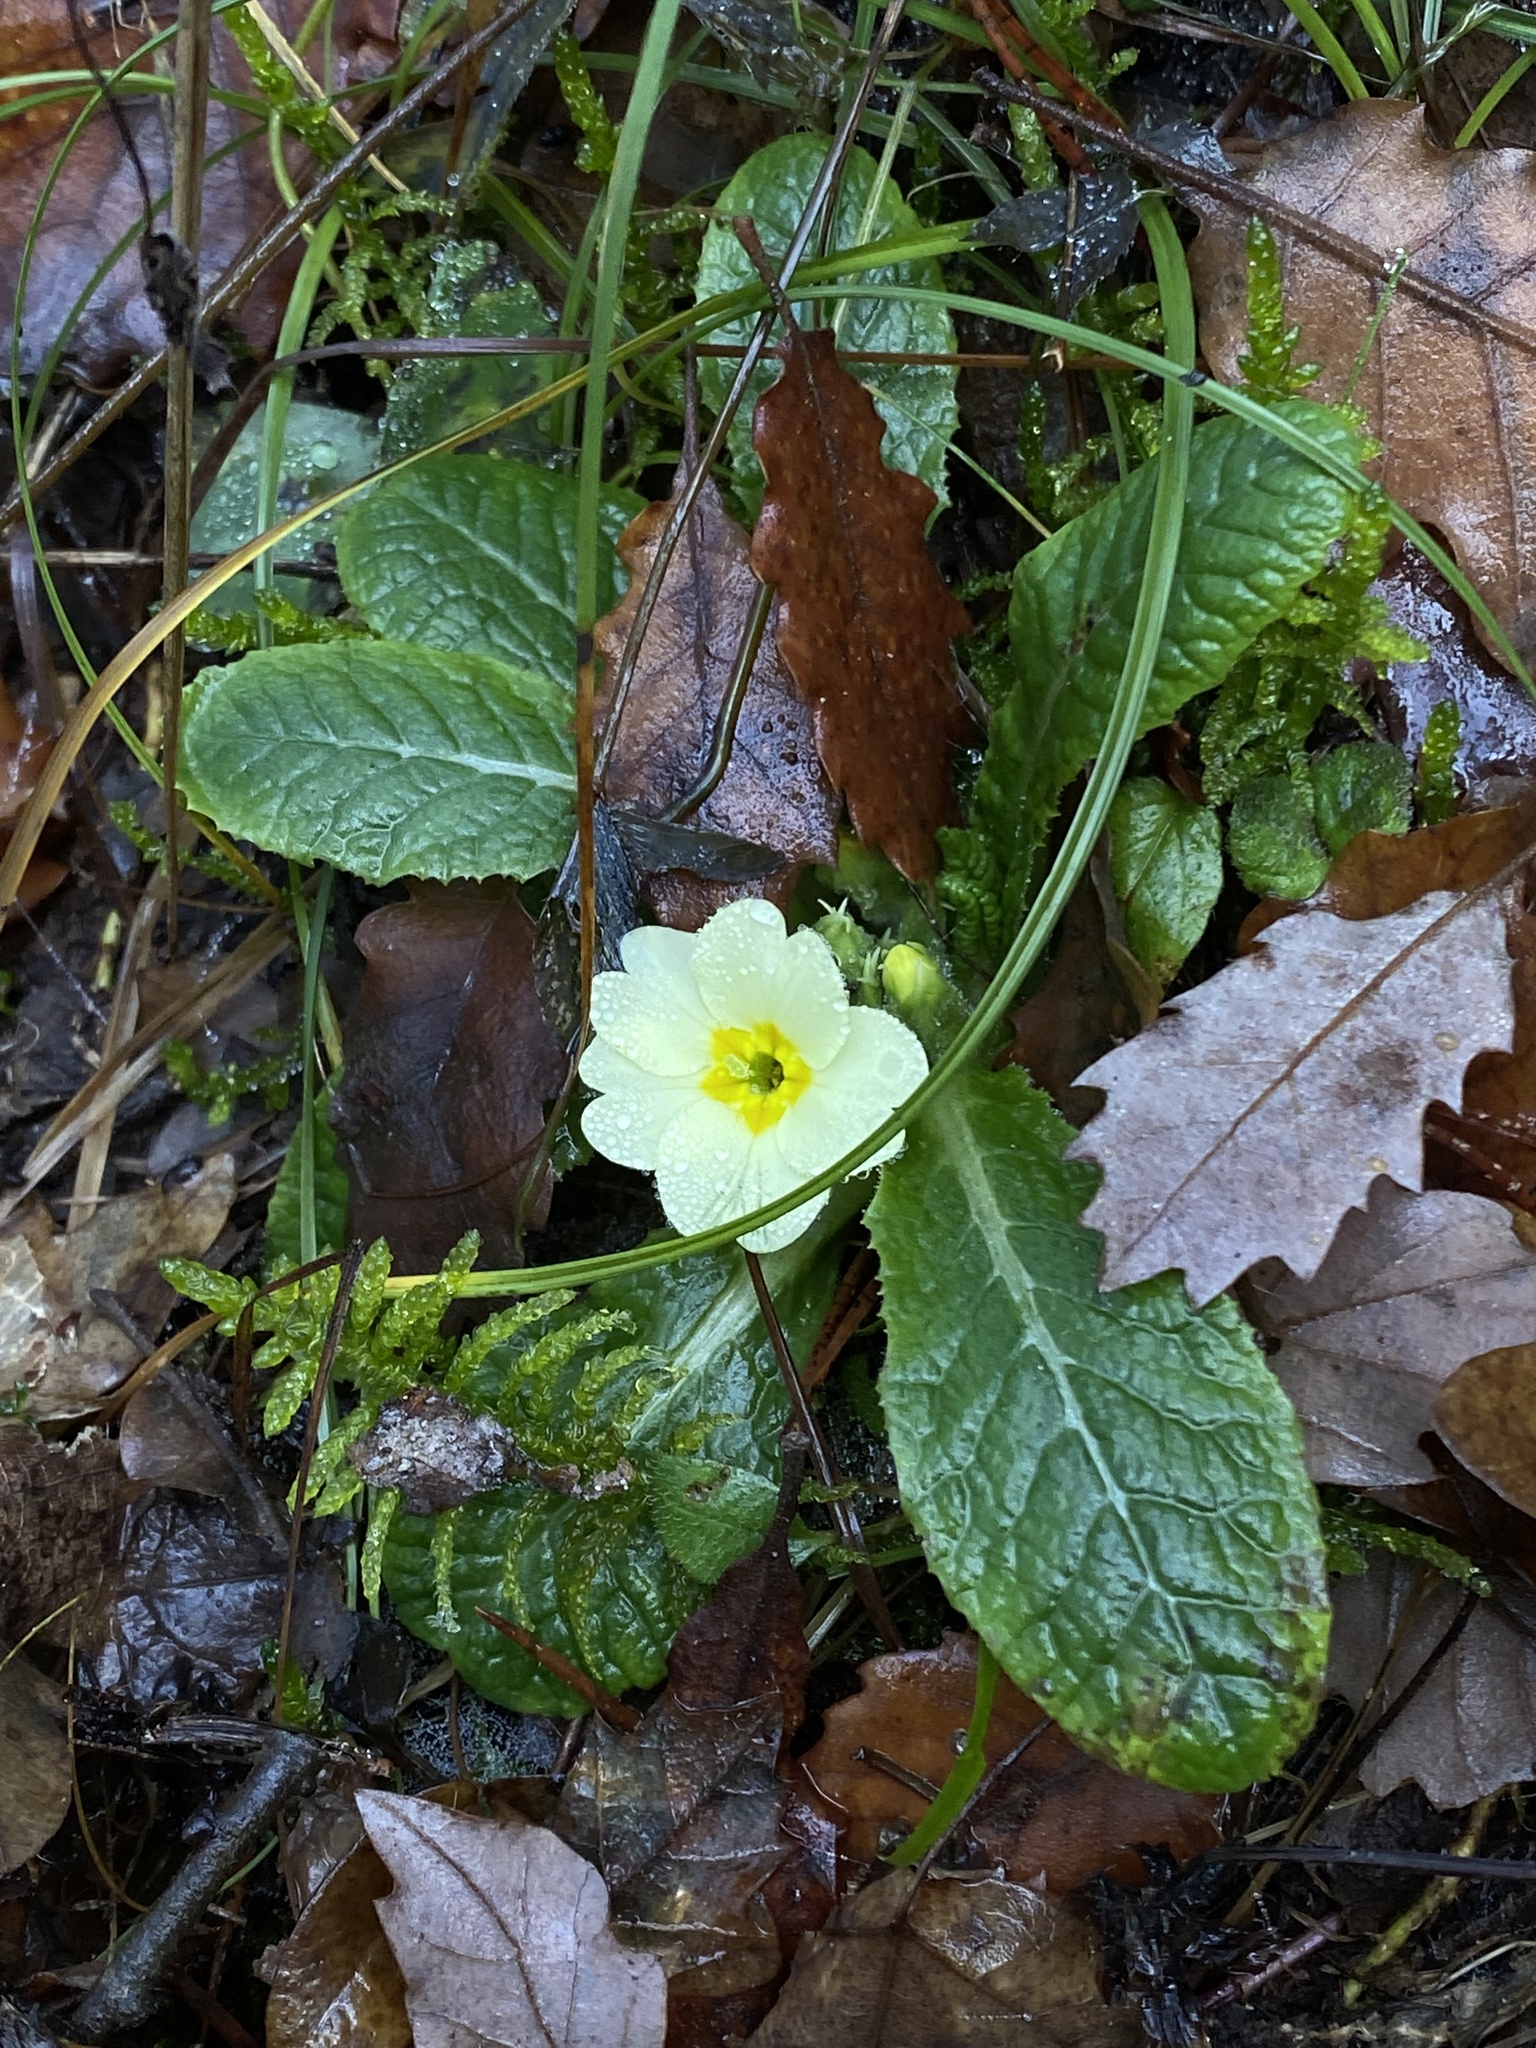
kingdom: Plantae
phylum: Tracheophyta
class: Magnoliopsida
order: Ericales
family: Primulaceae
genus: Primula
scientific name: Primula vulgaris
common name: Primrose
